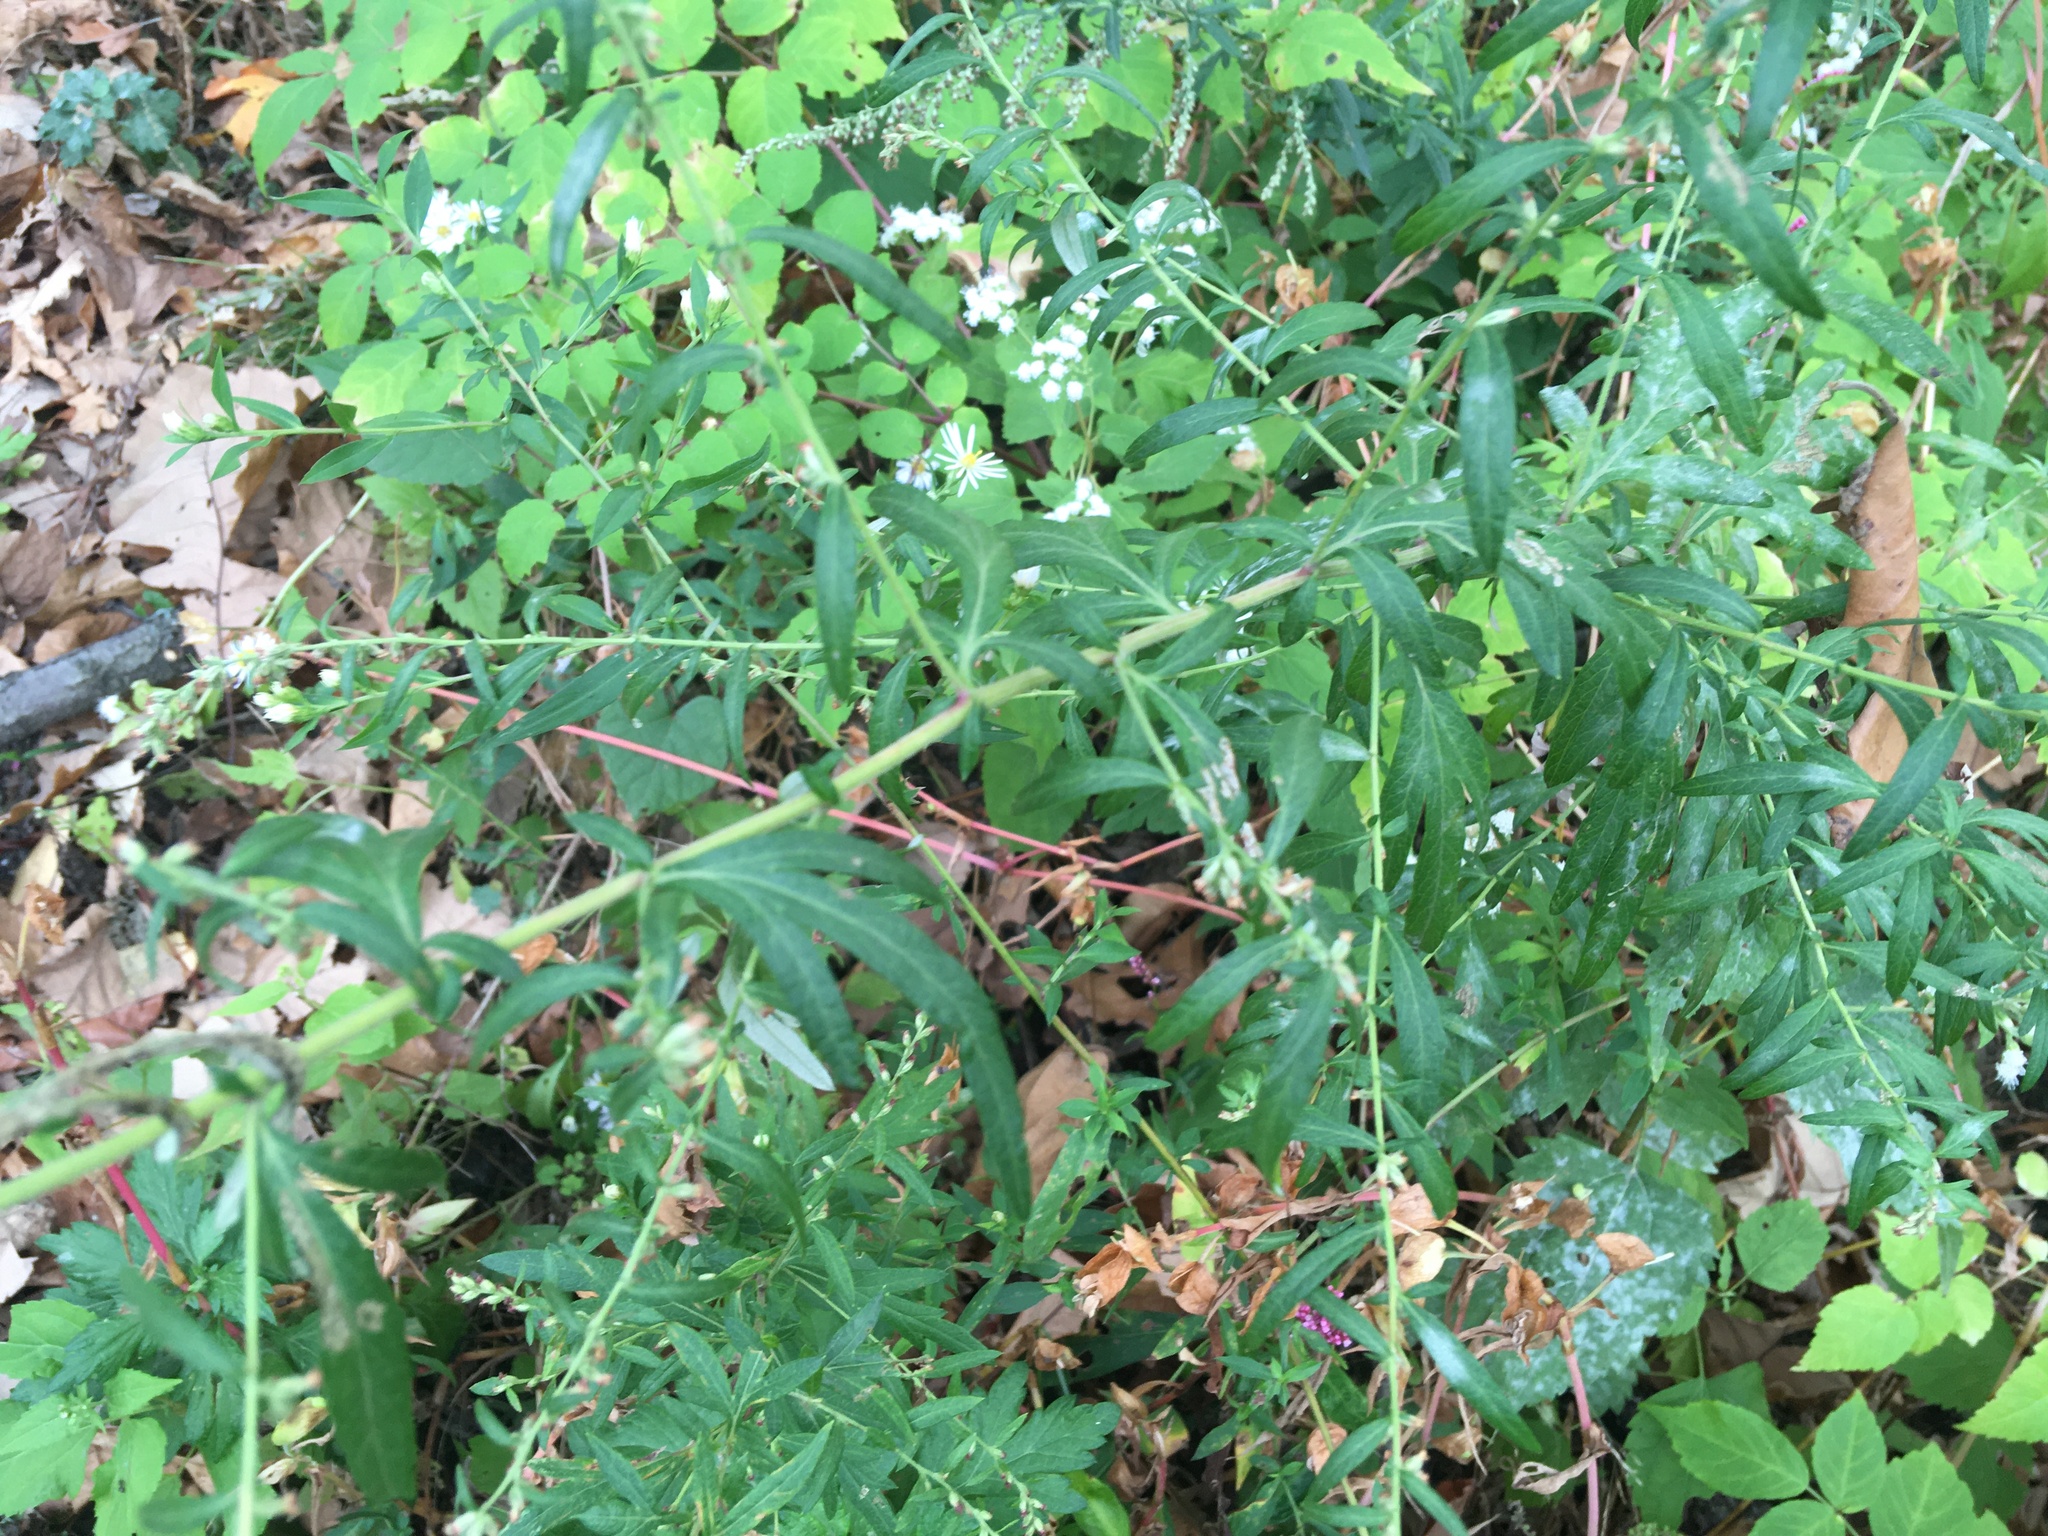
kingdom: Plantae
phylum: Tracheophyta
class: Magnoliopsida
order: Asterales
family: Asteraceae
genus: Artemisia
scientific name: Artemisia vulgaris
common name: Mugwort
